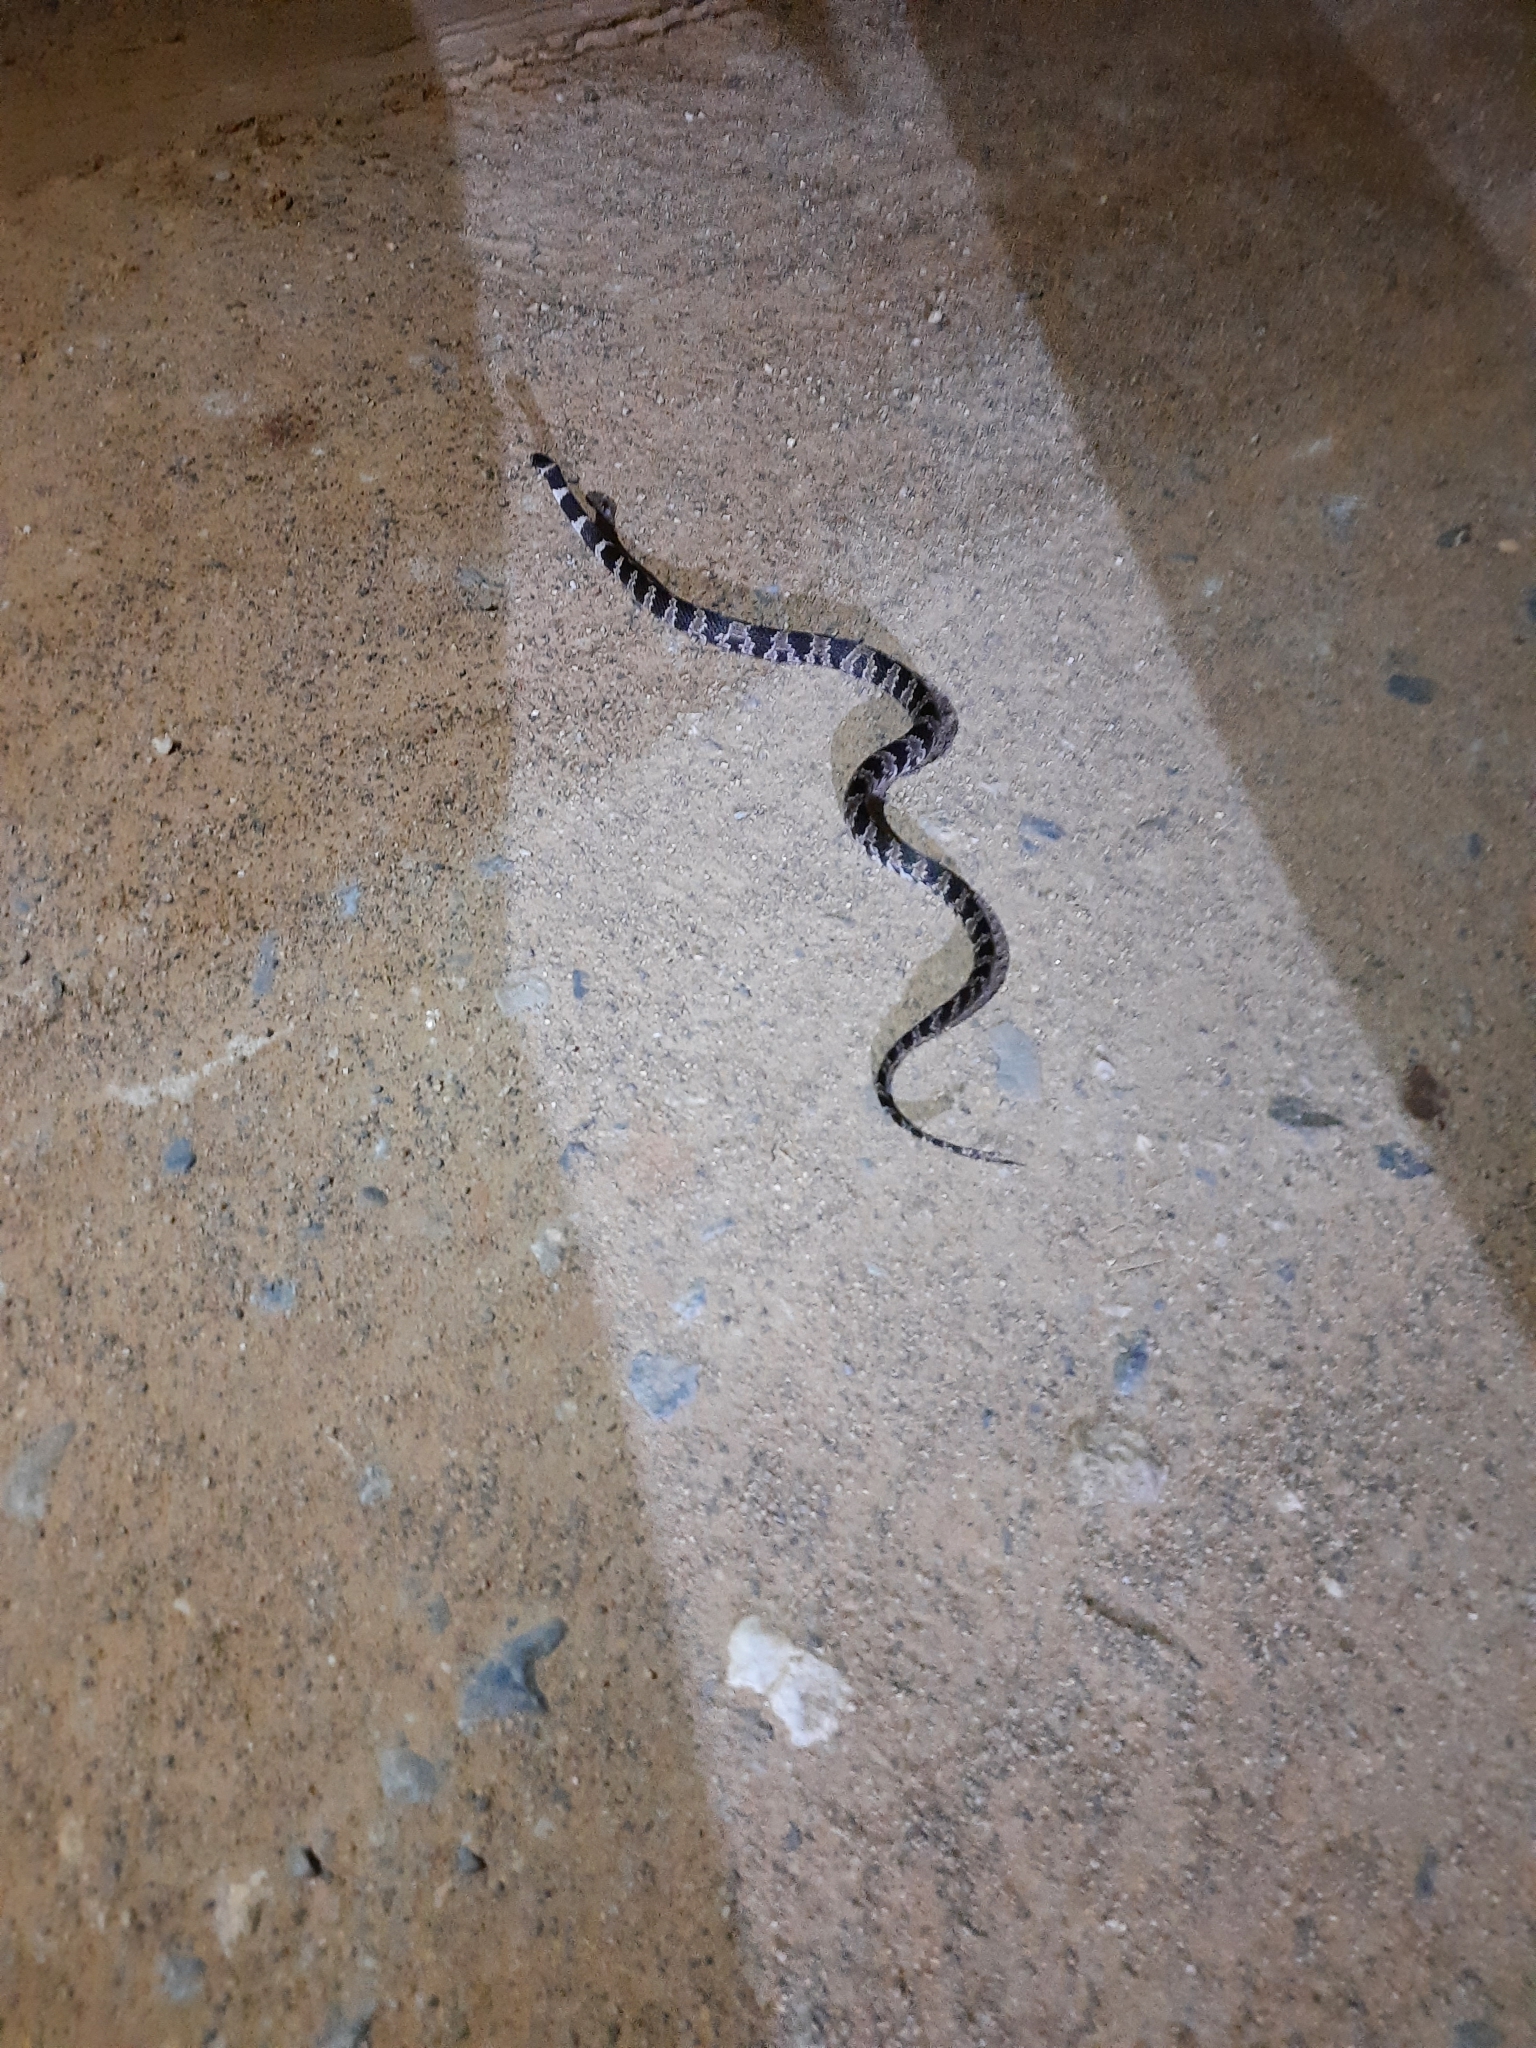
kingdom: Animalia
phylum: Chordata
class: Squamata
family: Colubridae
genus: Dipsas
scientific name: Dipsas mikanii
